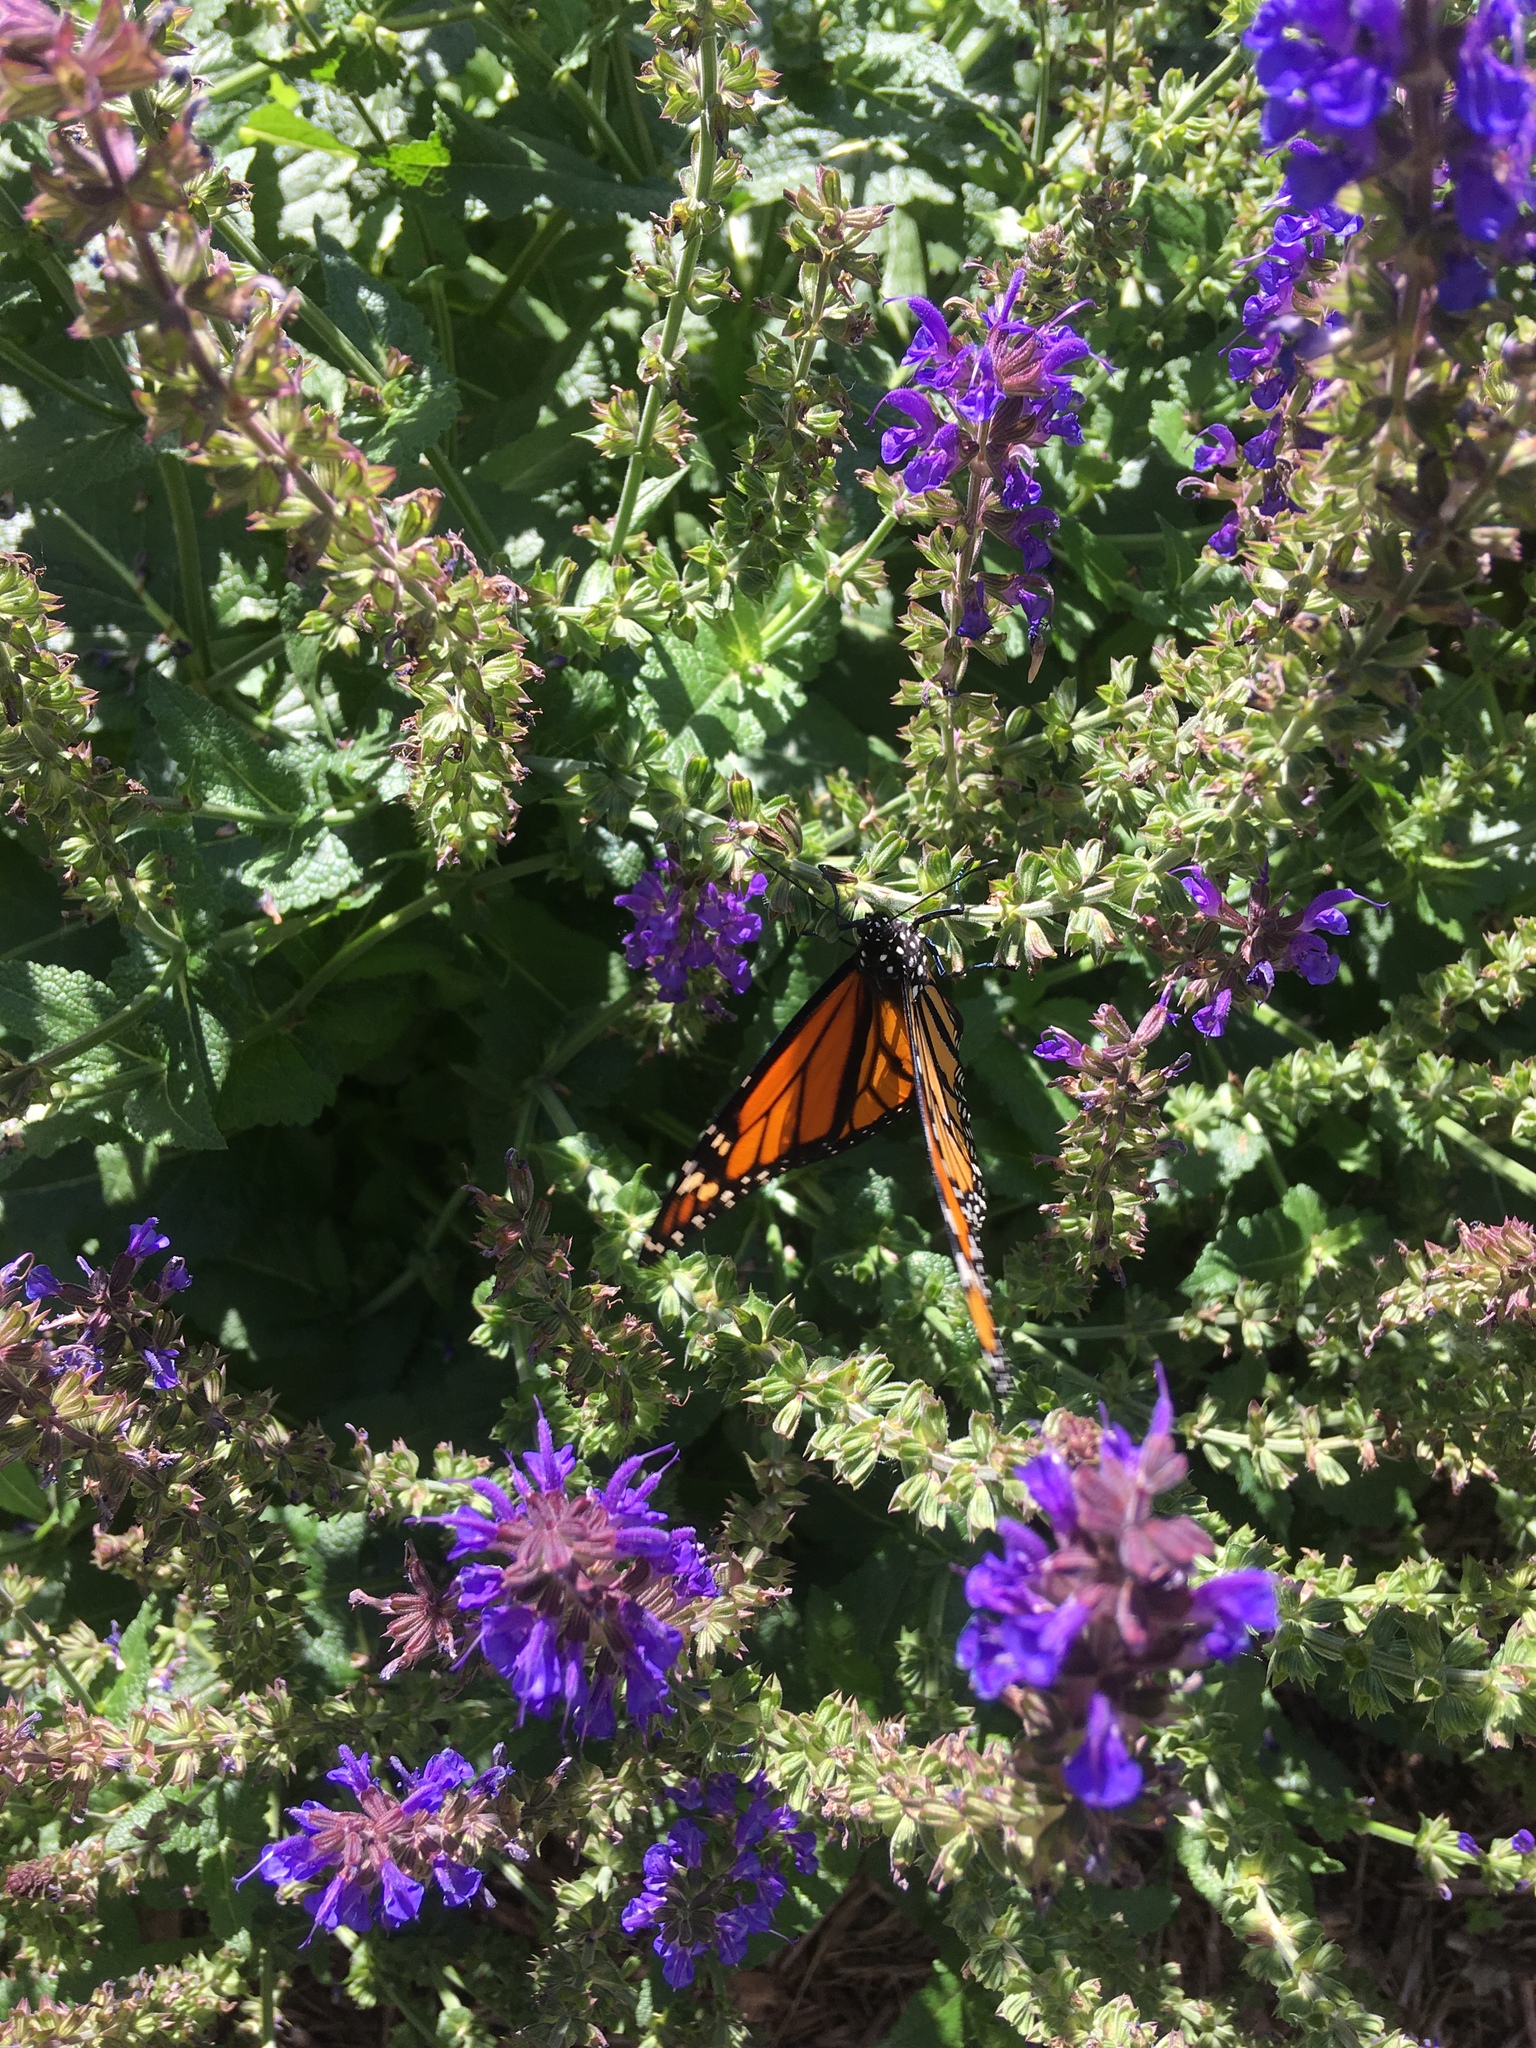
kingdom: Animalia
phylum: Arthropoda
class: Insecta
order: Lepidoptera
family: Nymphalidae
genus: Danaus
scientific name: Danaus plexippus
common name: Monarch
